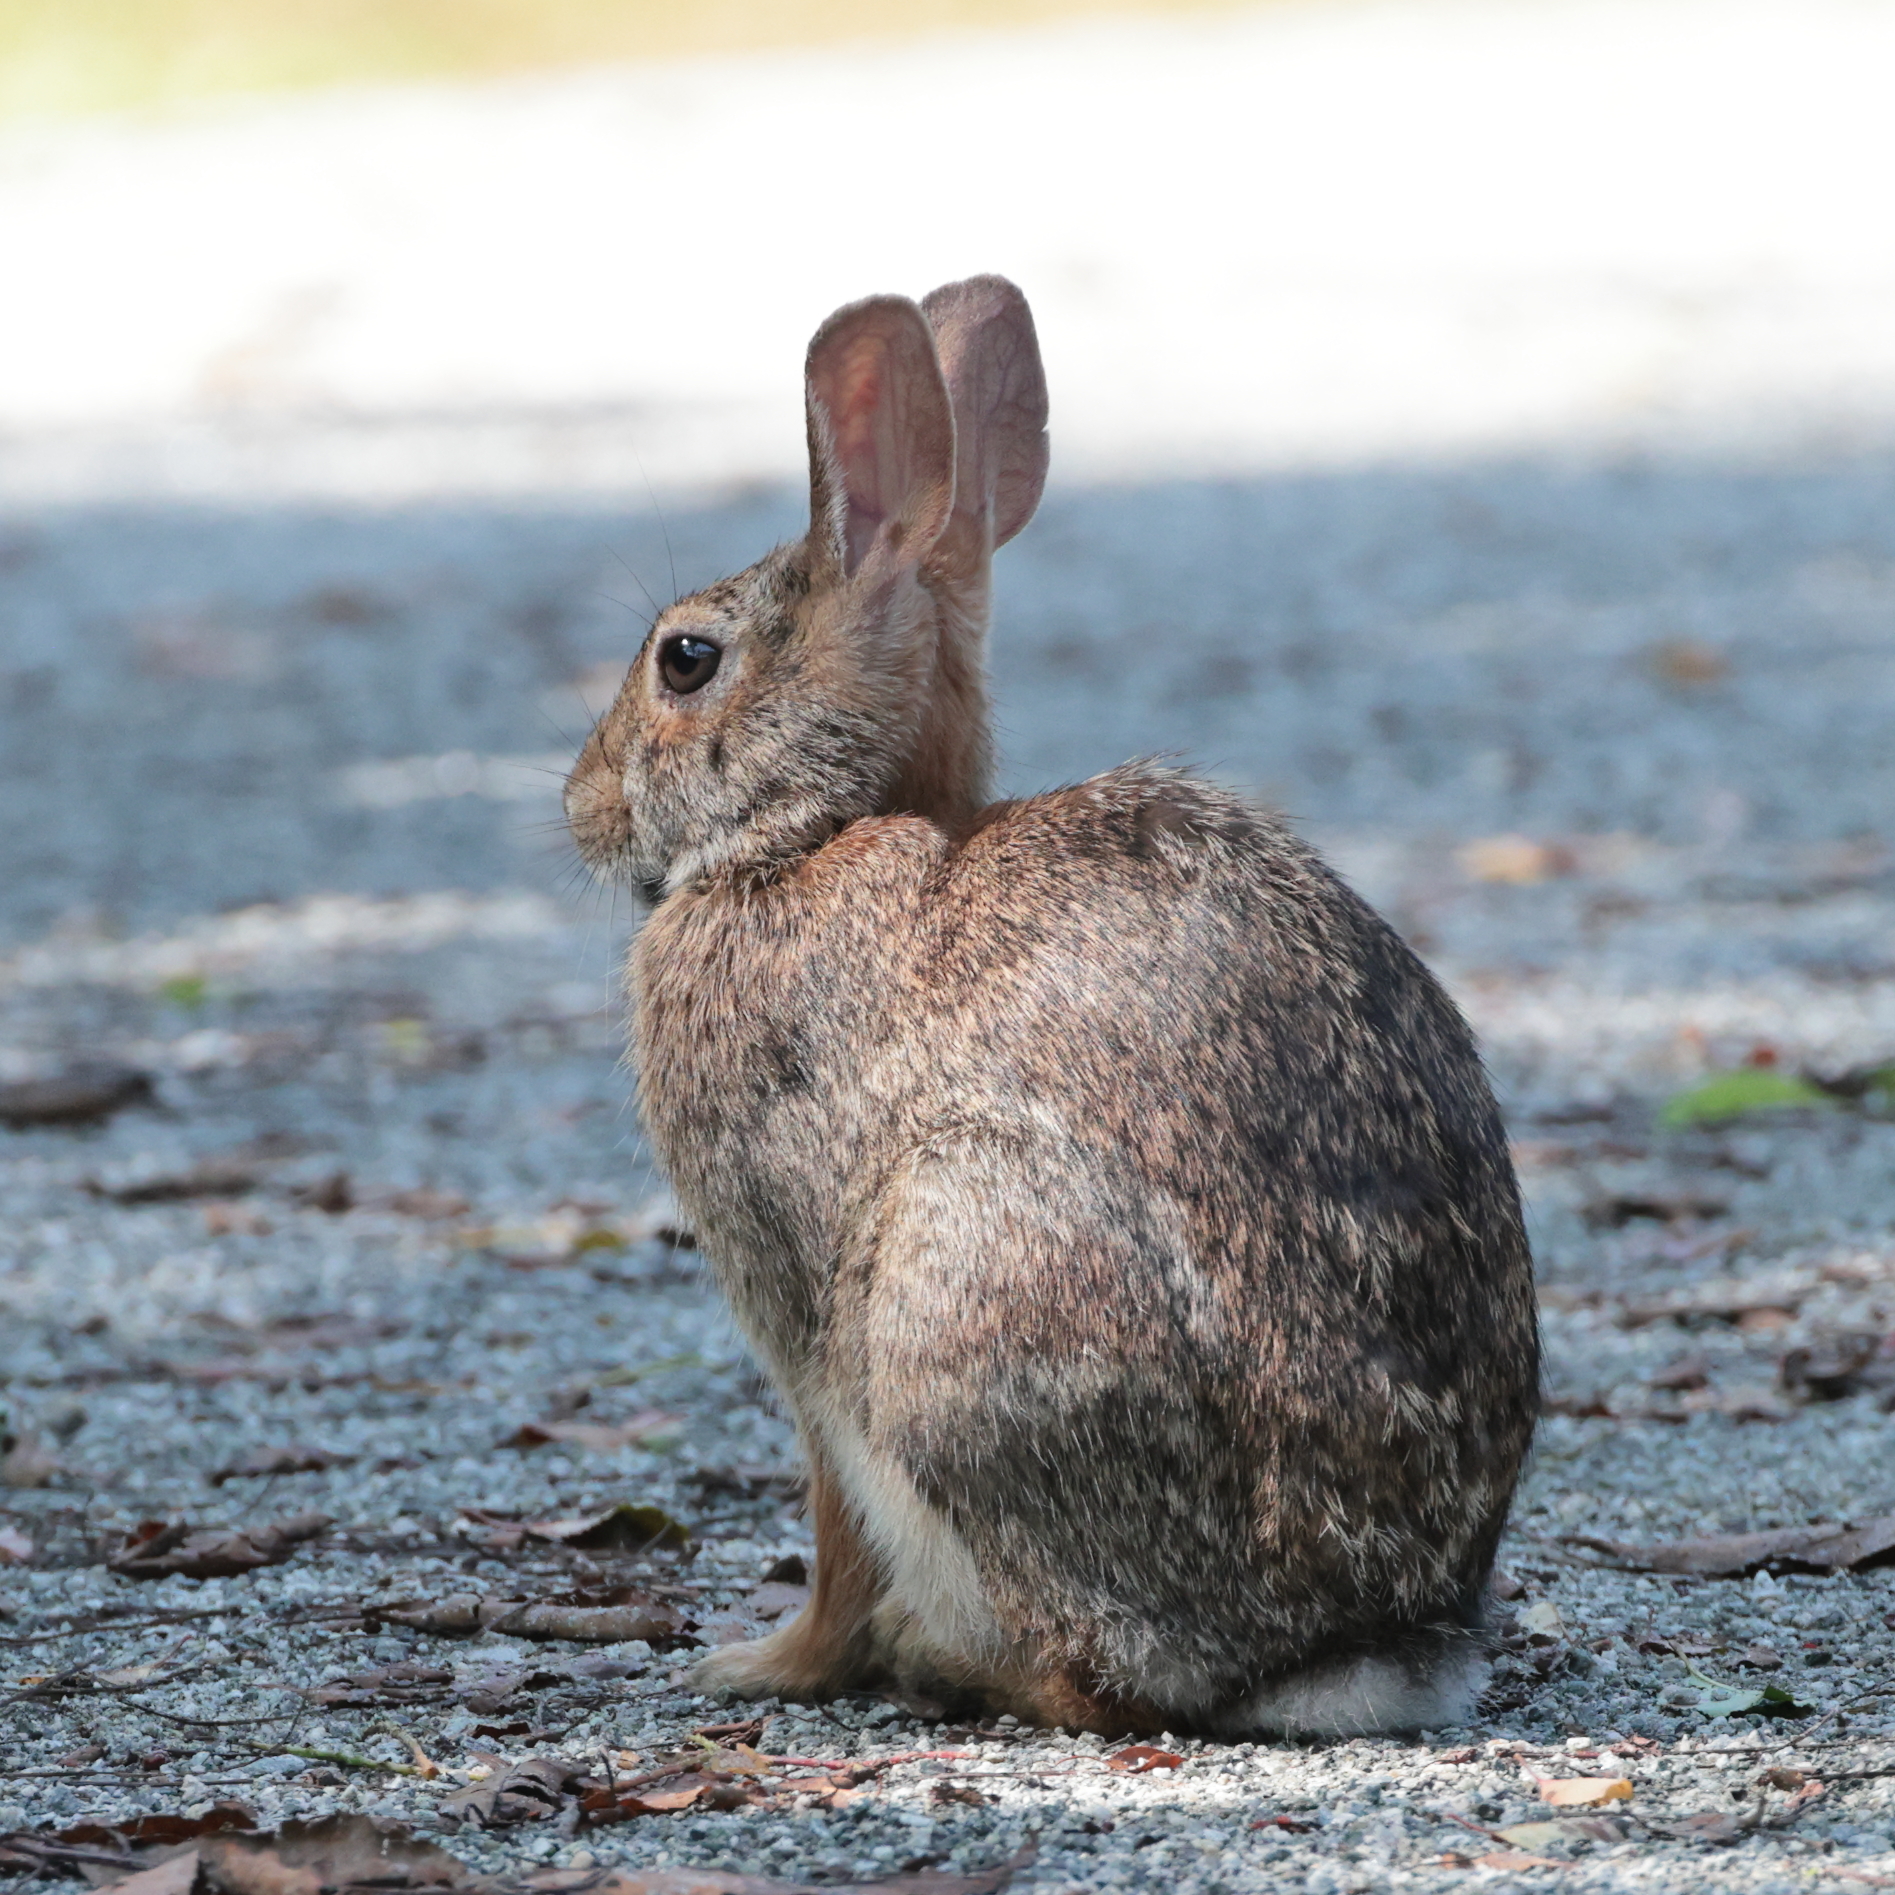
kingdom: Animalia
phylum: Chordata
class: Mammalia
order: Lagomorpha
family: Leporidae
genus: Sylvilagus
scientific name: Sylvilagus floridanus
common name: Eastern cottontail
